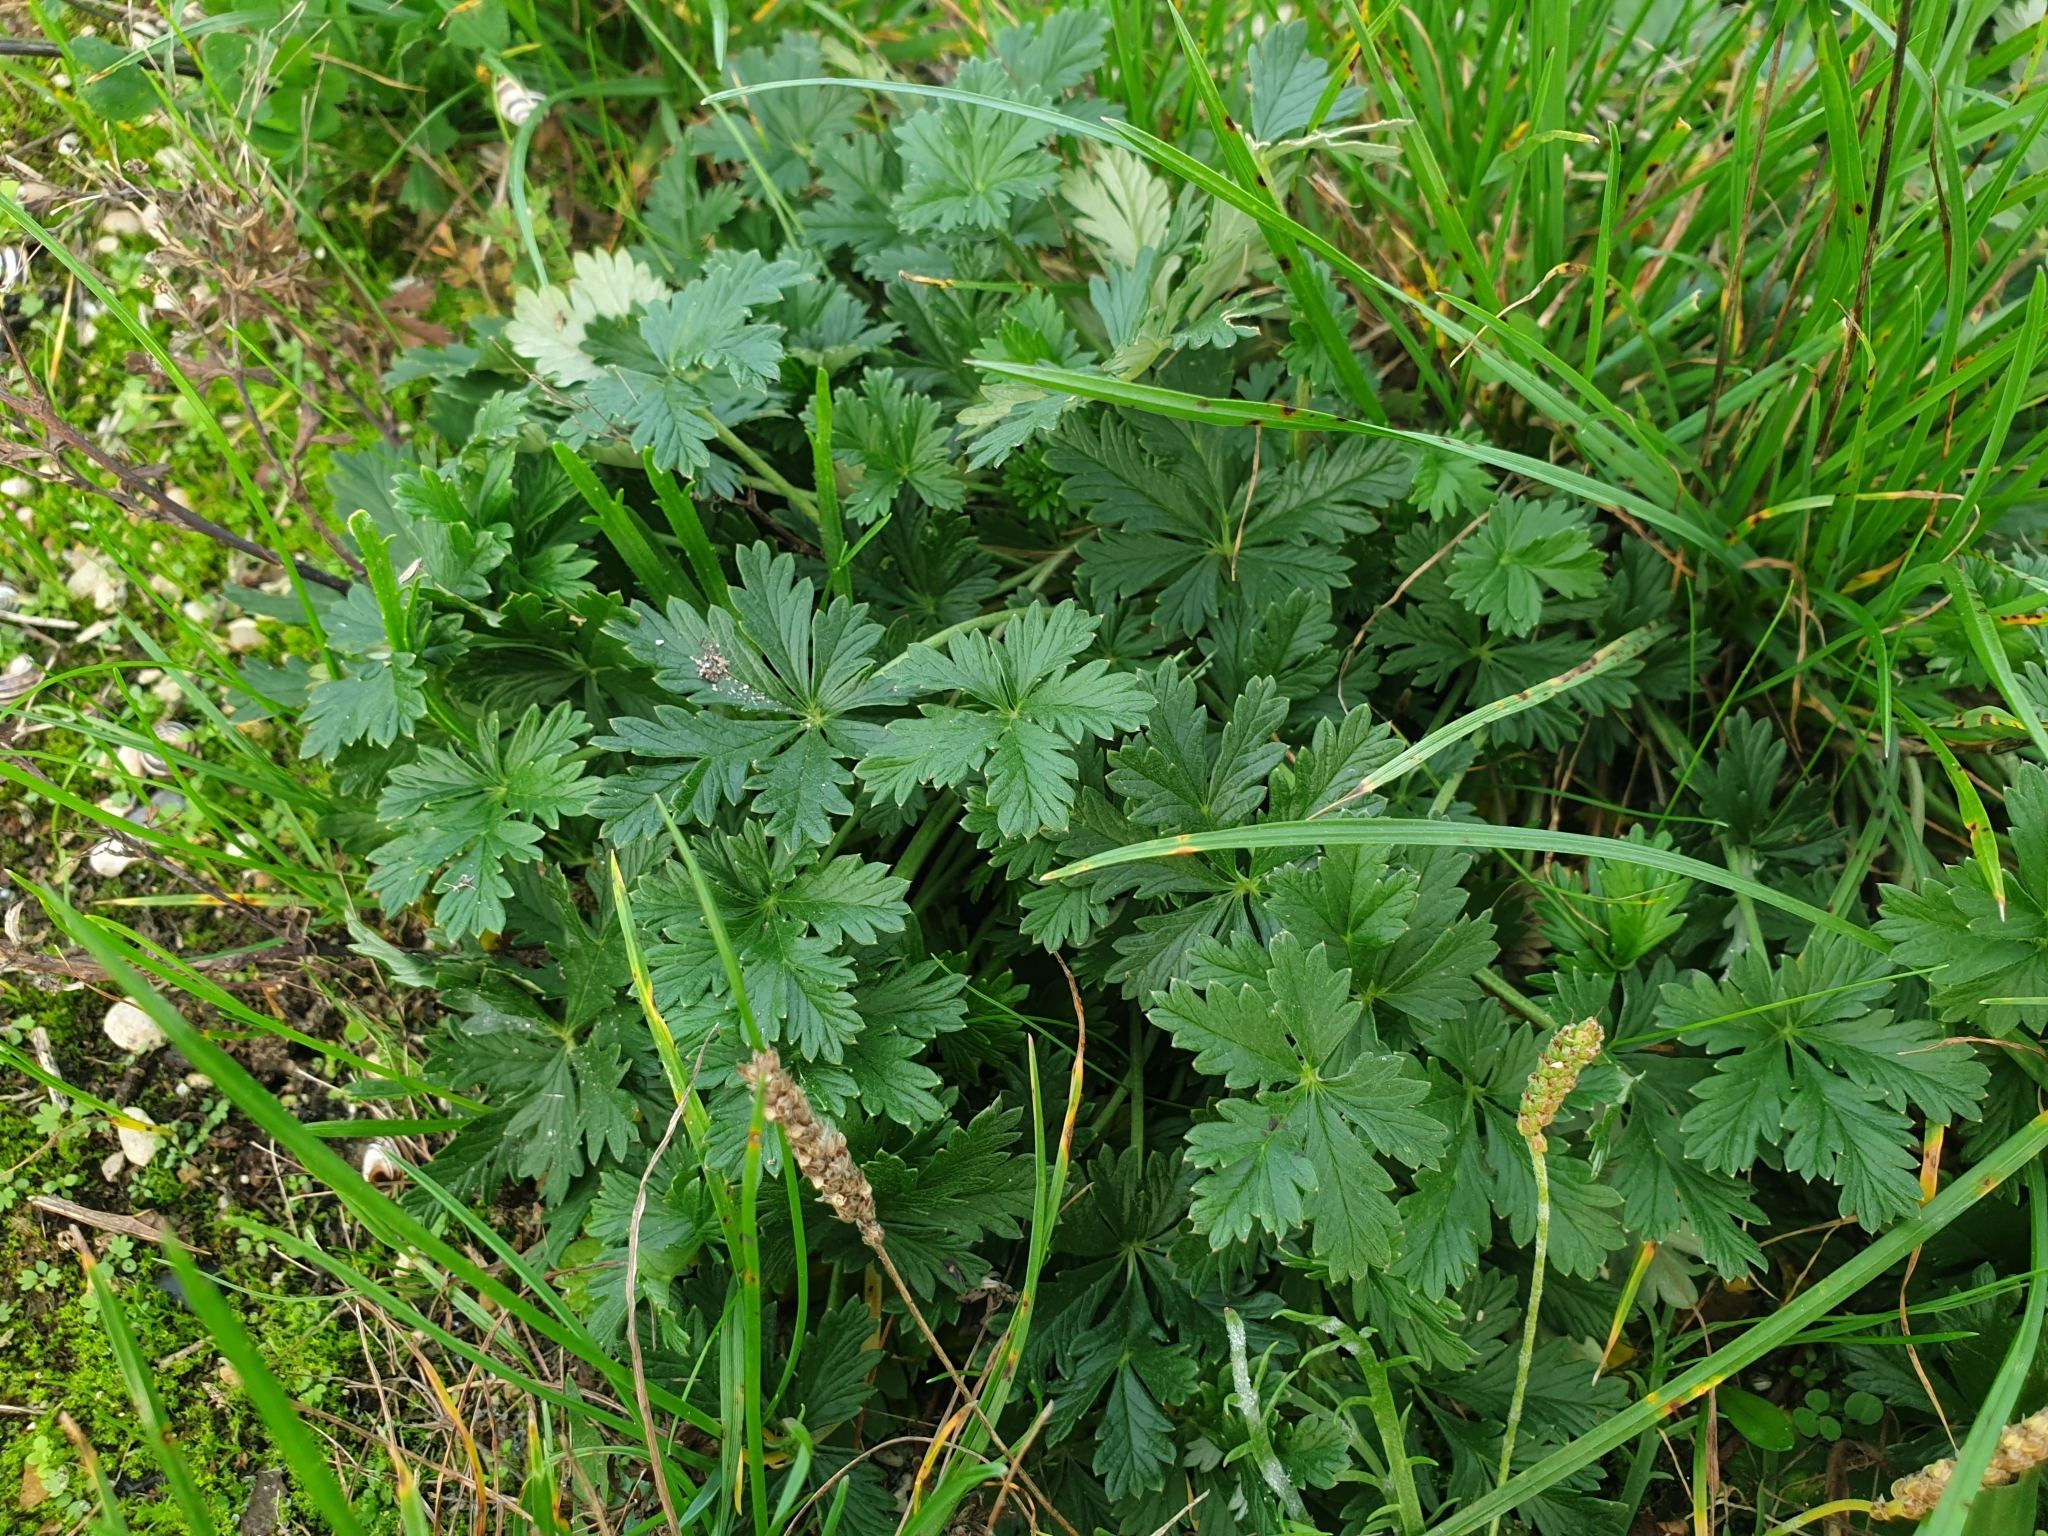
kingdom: Plantae
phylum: Tracheophyta
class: Magnoliopsida
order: Rosales
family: Rosaceae
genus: Potentilla
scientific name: Potentilla argentea
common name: Hoary cinquefoil
